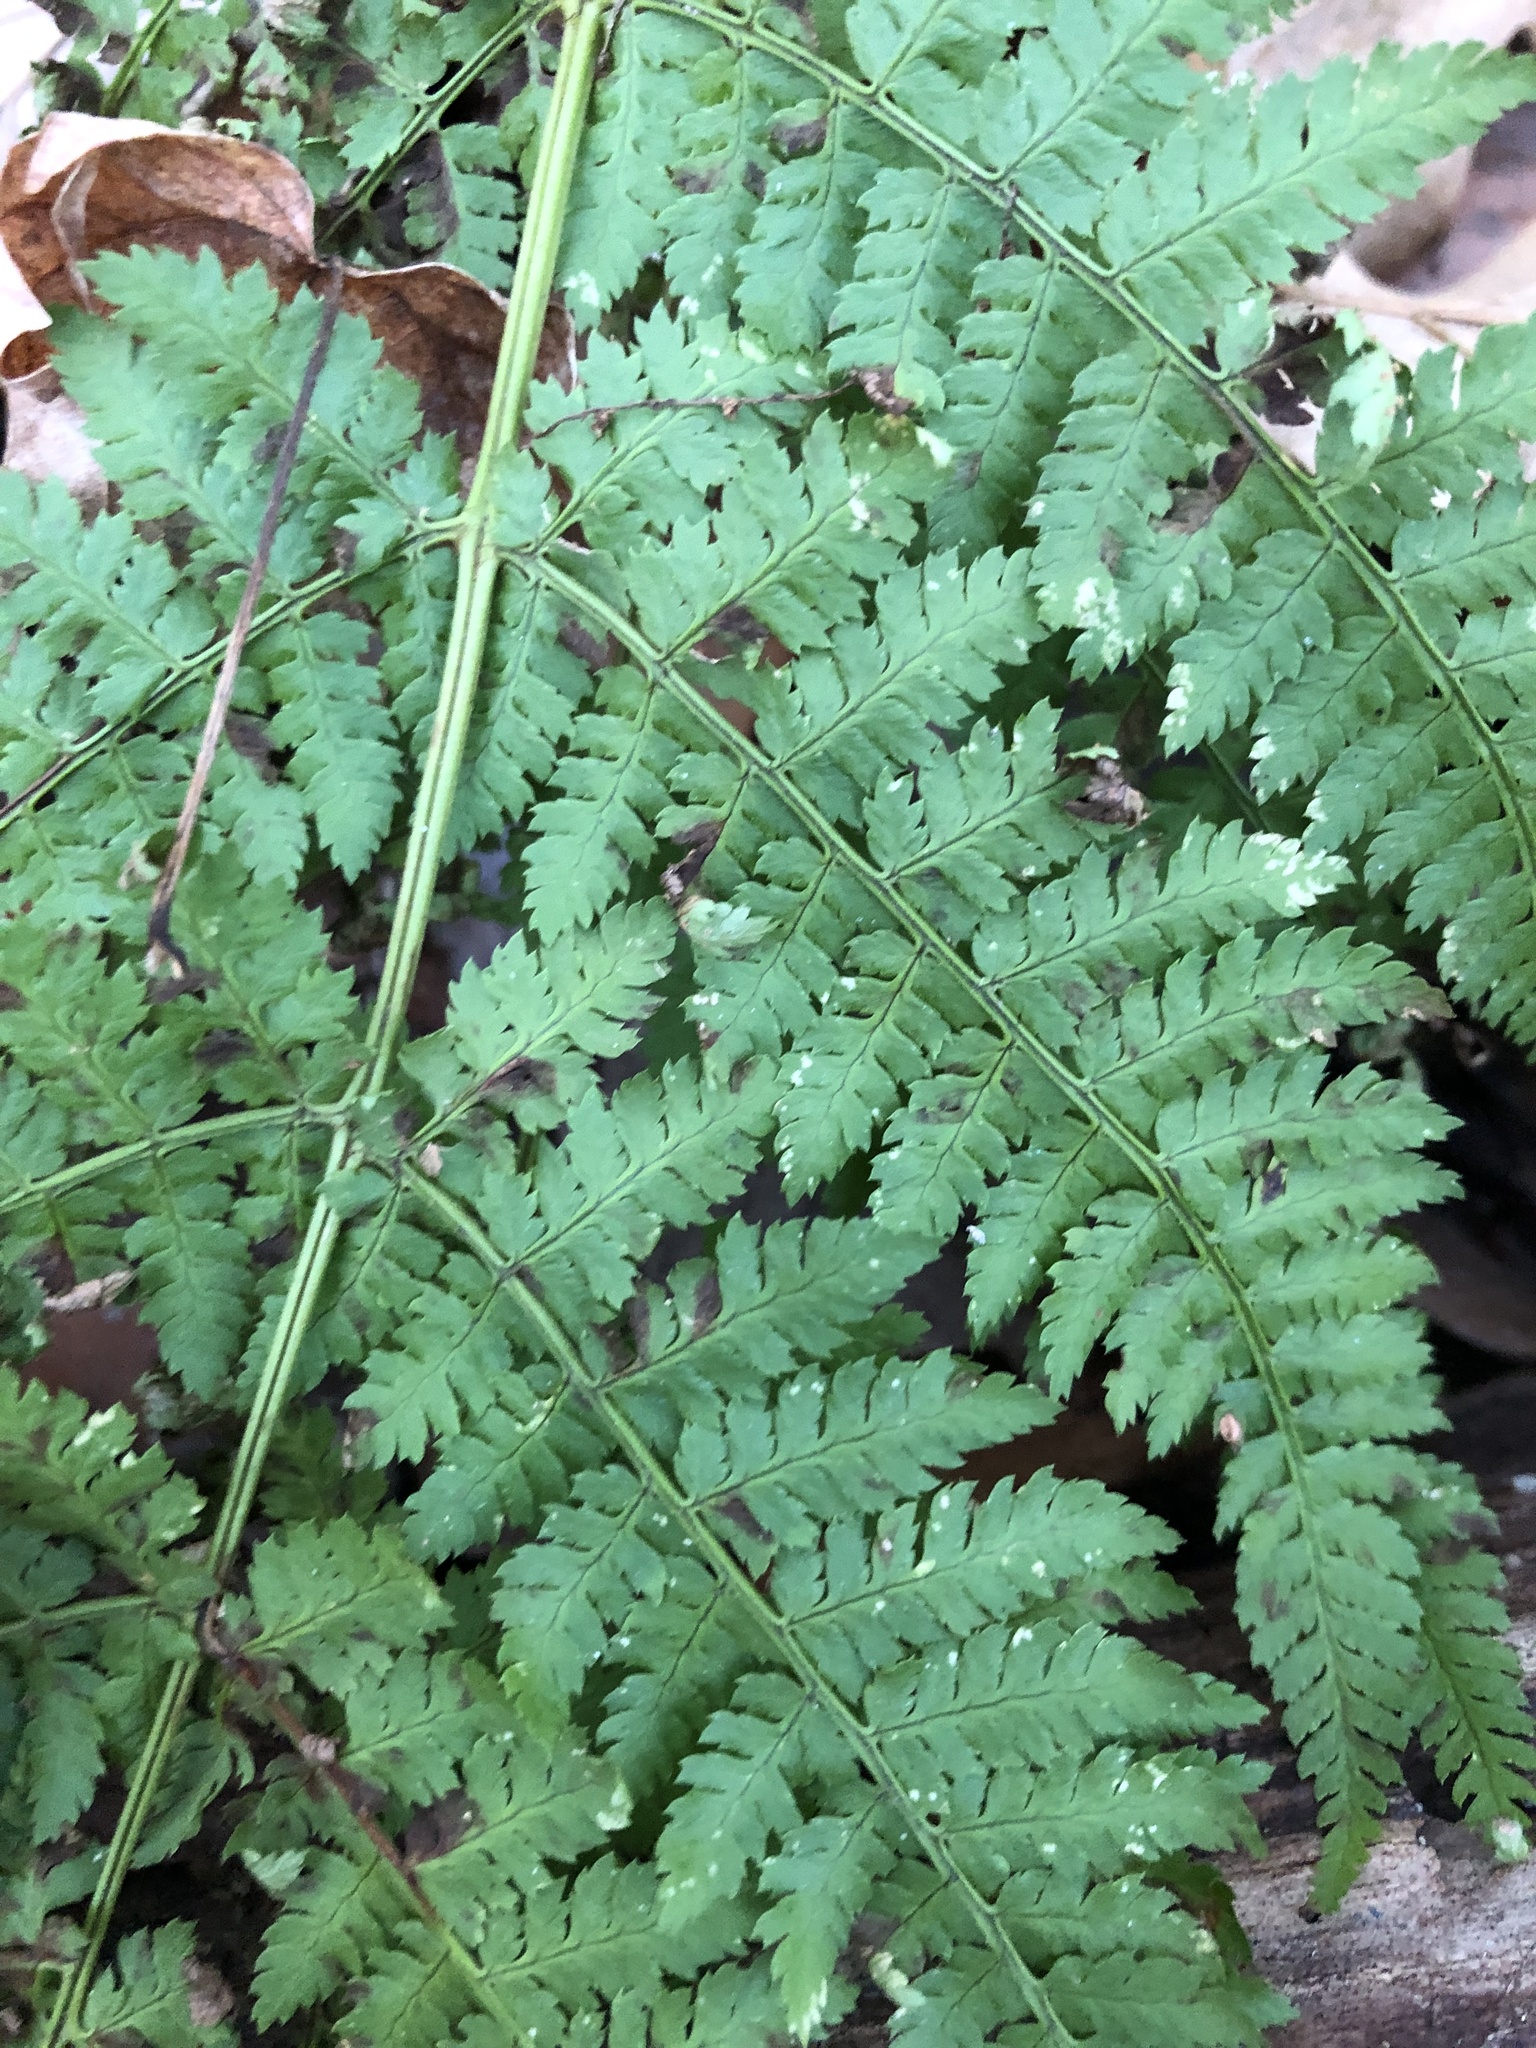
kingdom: Plantae
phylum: Tracheophyta
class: Polypodiopsida
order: Polypodiales
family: Dryopteridaceae
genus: Dryopteris
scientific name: Dryopteris intermedia
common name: Evergreen wood fern
